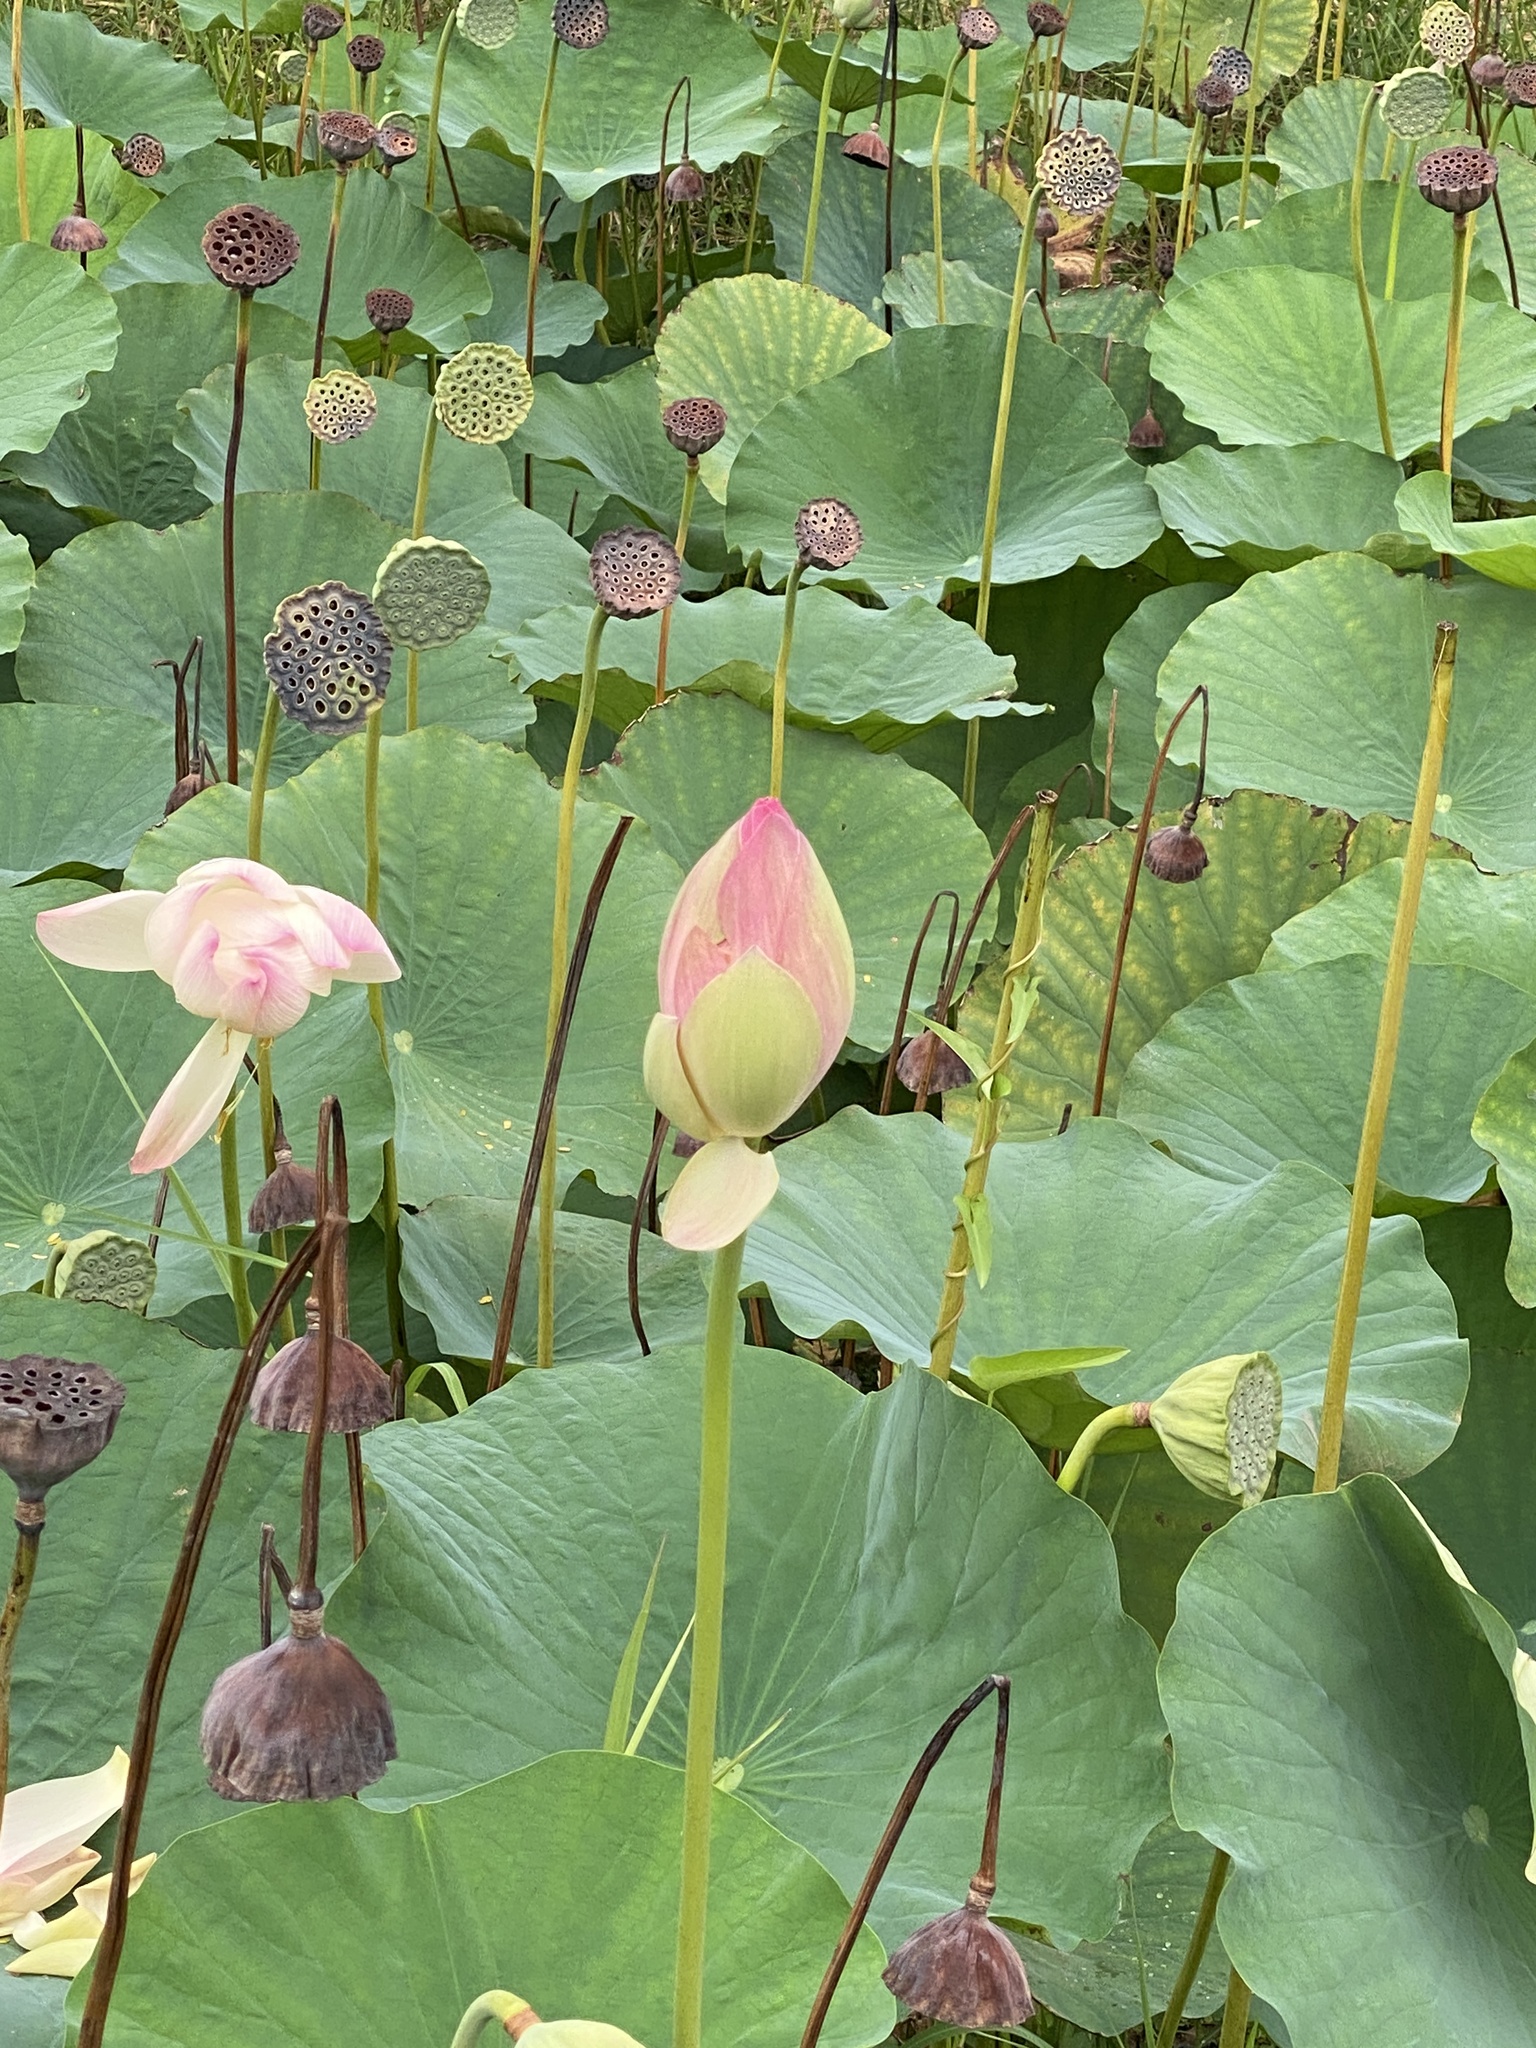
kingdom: Plantae
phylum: Tracheophyta
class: Magnoliopsida
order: Proteales
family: Nelumbonaceae
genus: Nelumbo
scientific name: Nelumbo nucifera
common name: Sacred lotus
